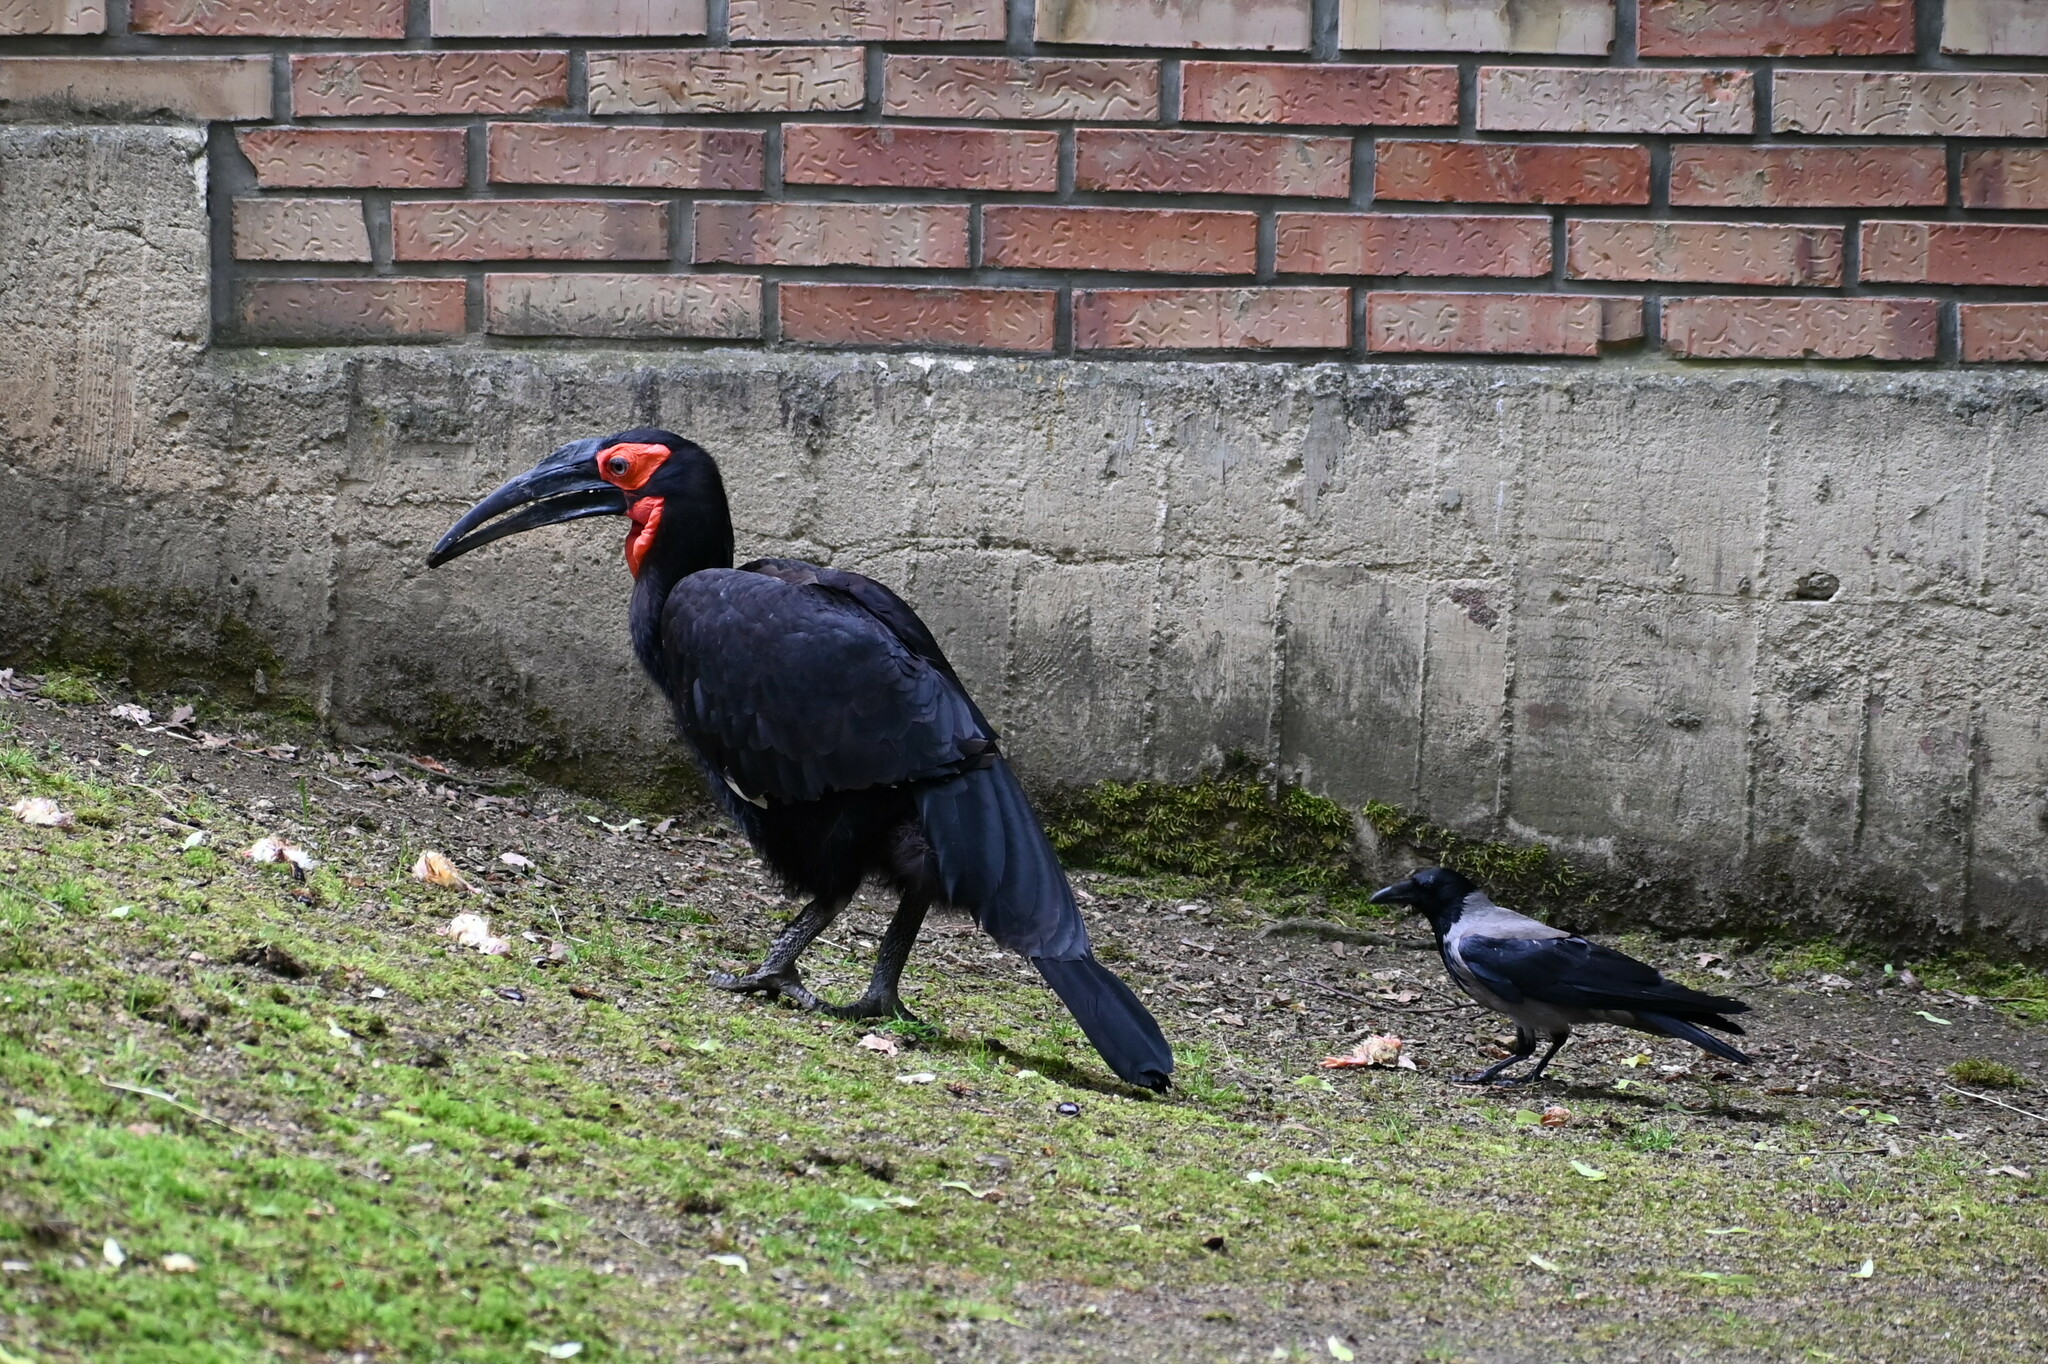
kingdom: Animalia
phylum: Chordata
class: Aves
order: Passeriformes
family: Corvidae
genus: Corvus
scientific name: Corvus cornix
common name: Hooded crow
